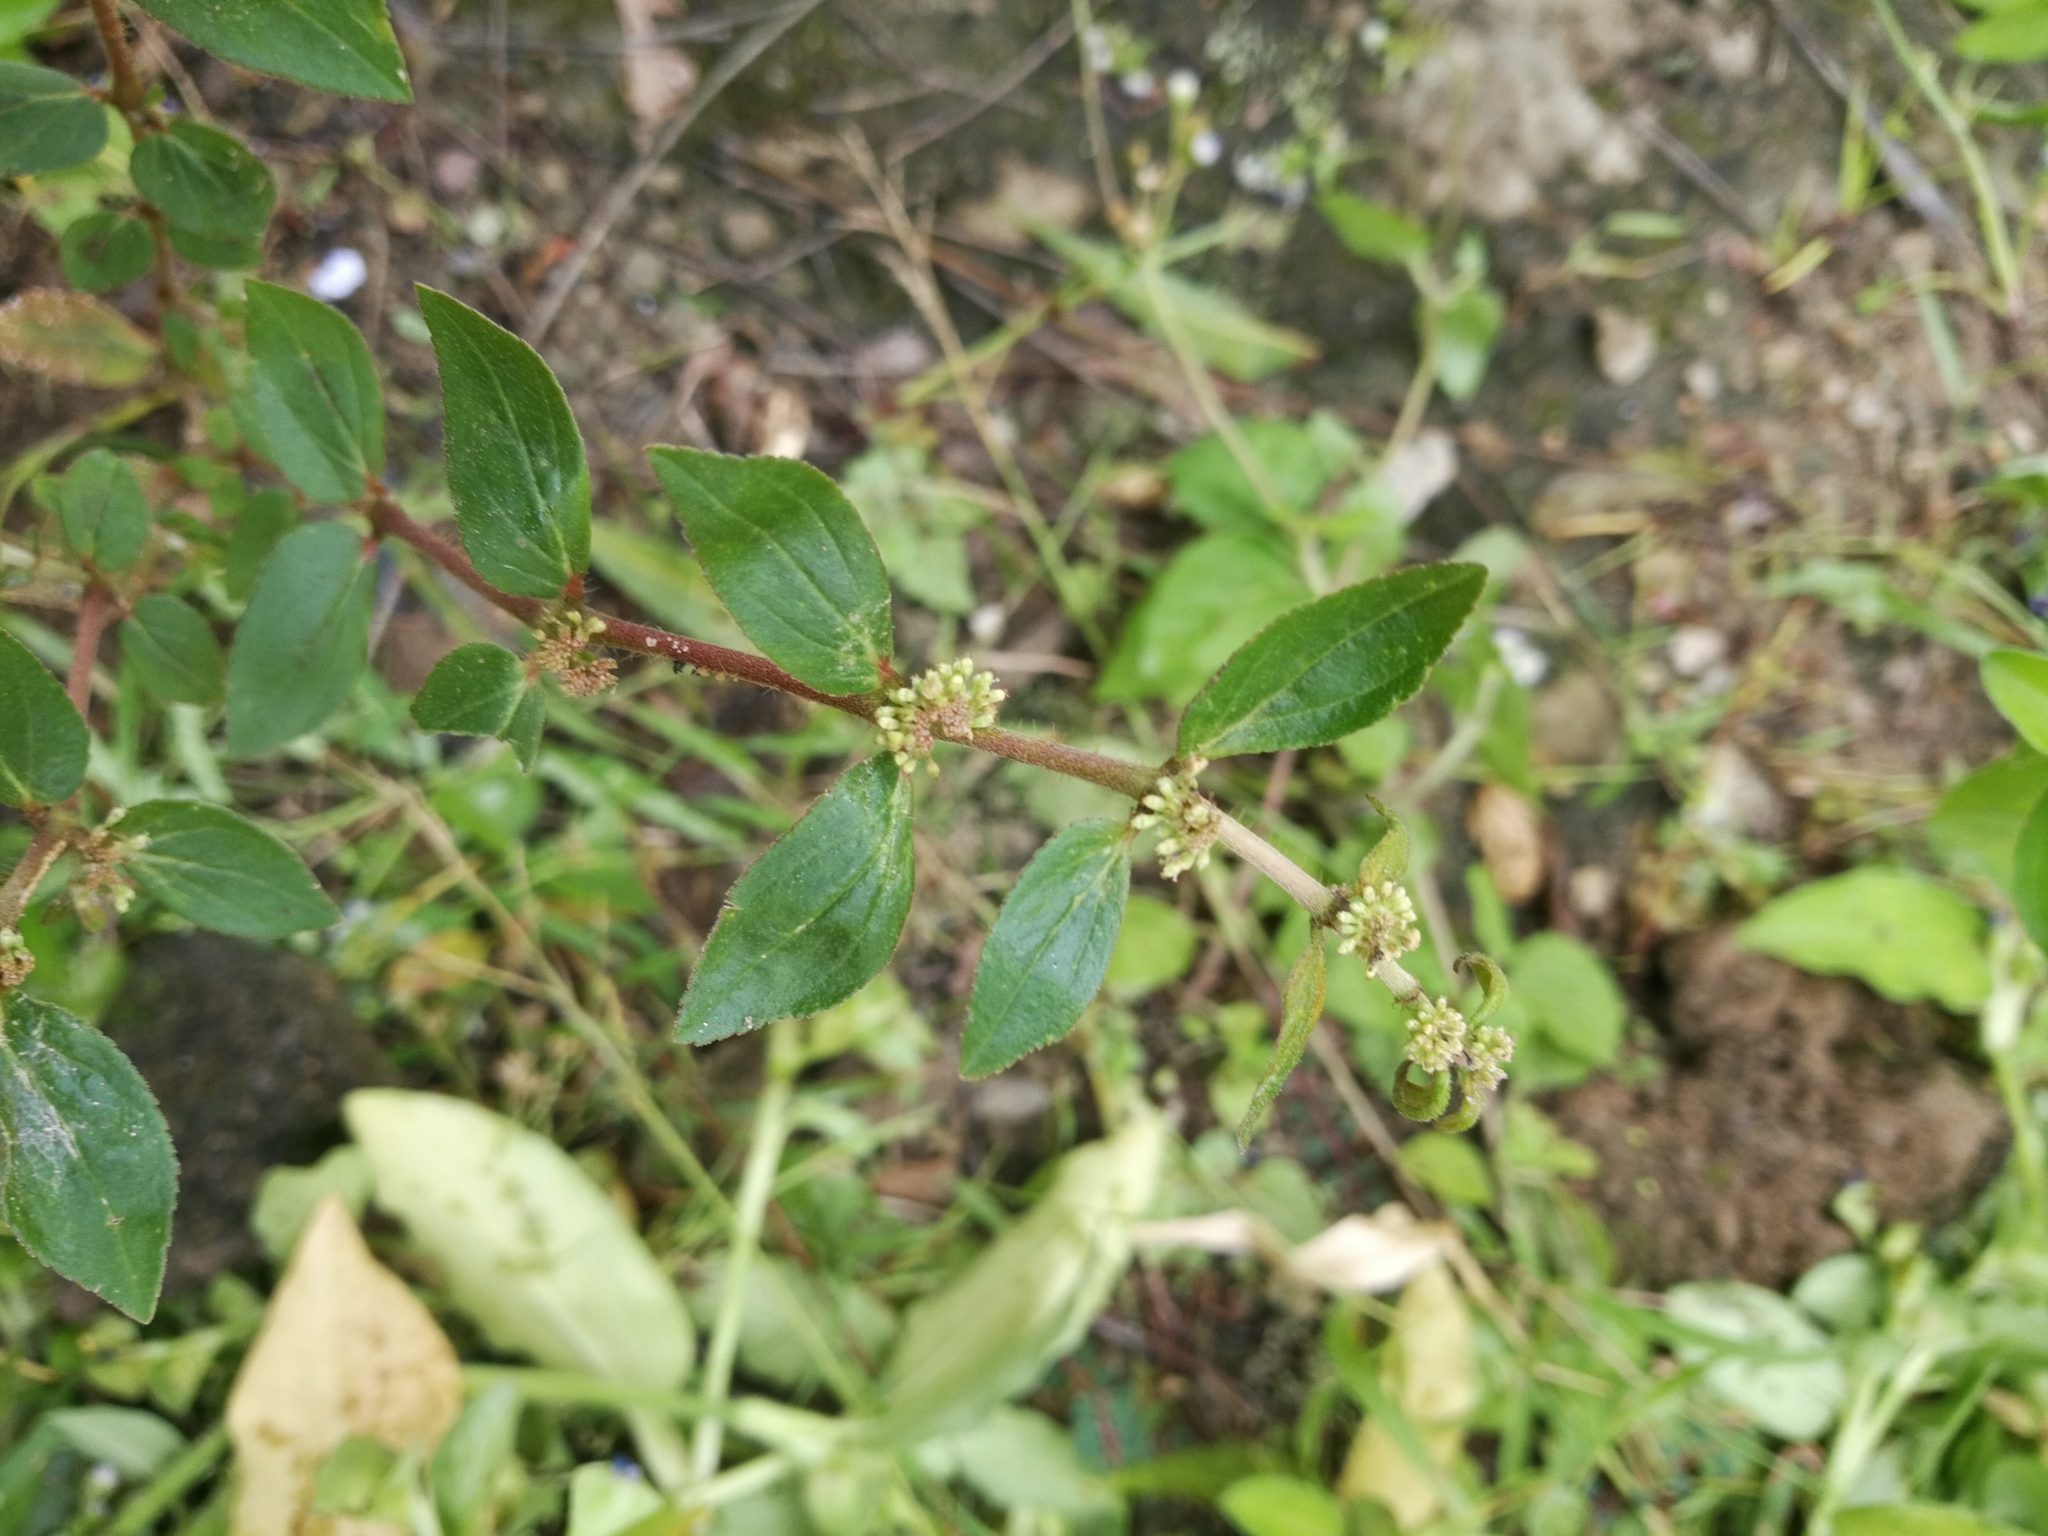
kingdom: Plantae
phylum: Tracheophyta
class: Magnoliopsida
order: Malpighiales
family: Euphorbiaceae
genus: Euphorbia
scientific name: Euphorbia hirta
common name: Pillpod sandmat
